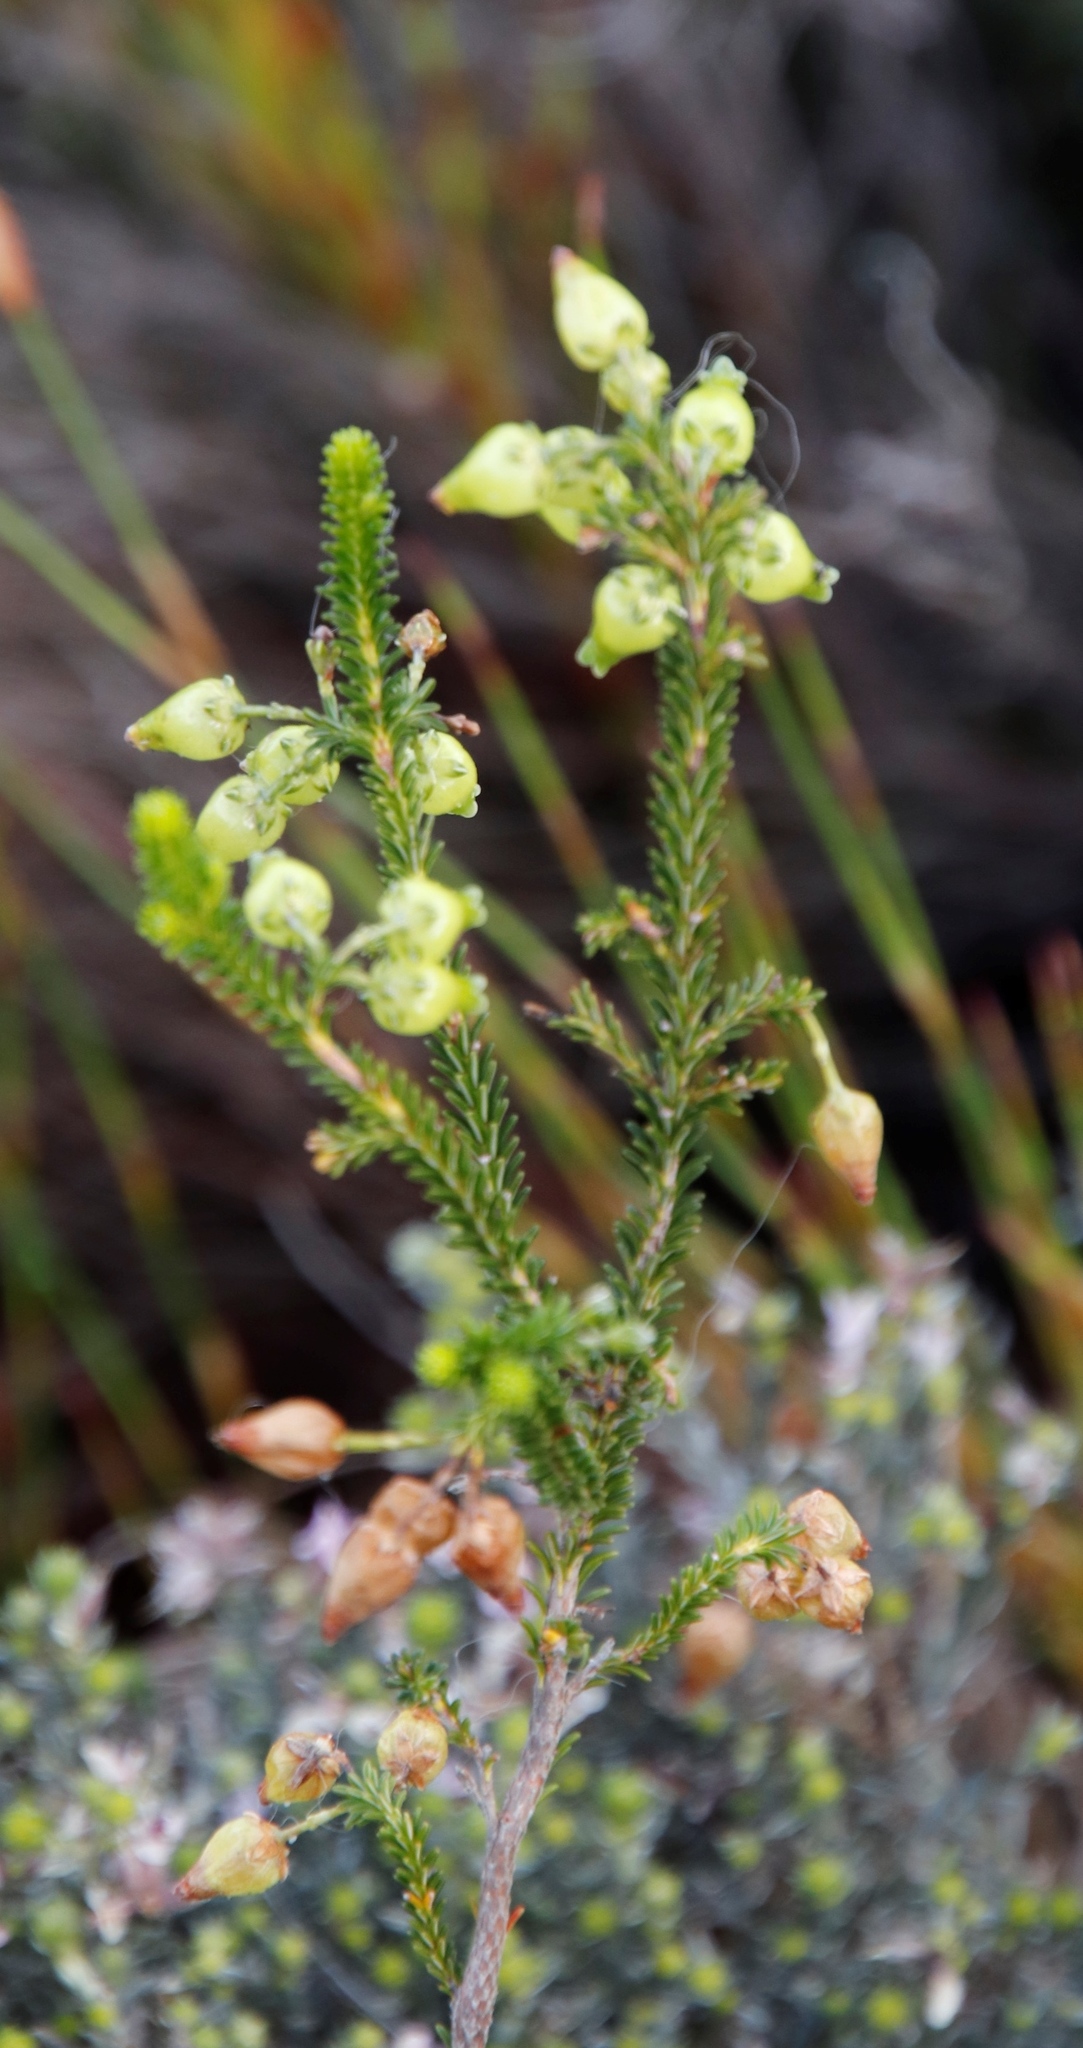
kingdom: Plantae
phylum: Tracheophyta
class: Magnoliopsida
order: Ericales
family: Ericaceae
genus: Erica
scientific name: Erica urna-viridis
